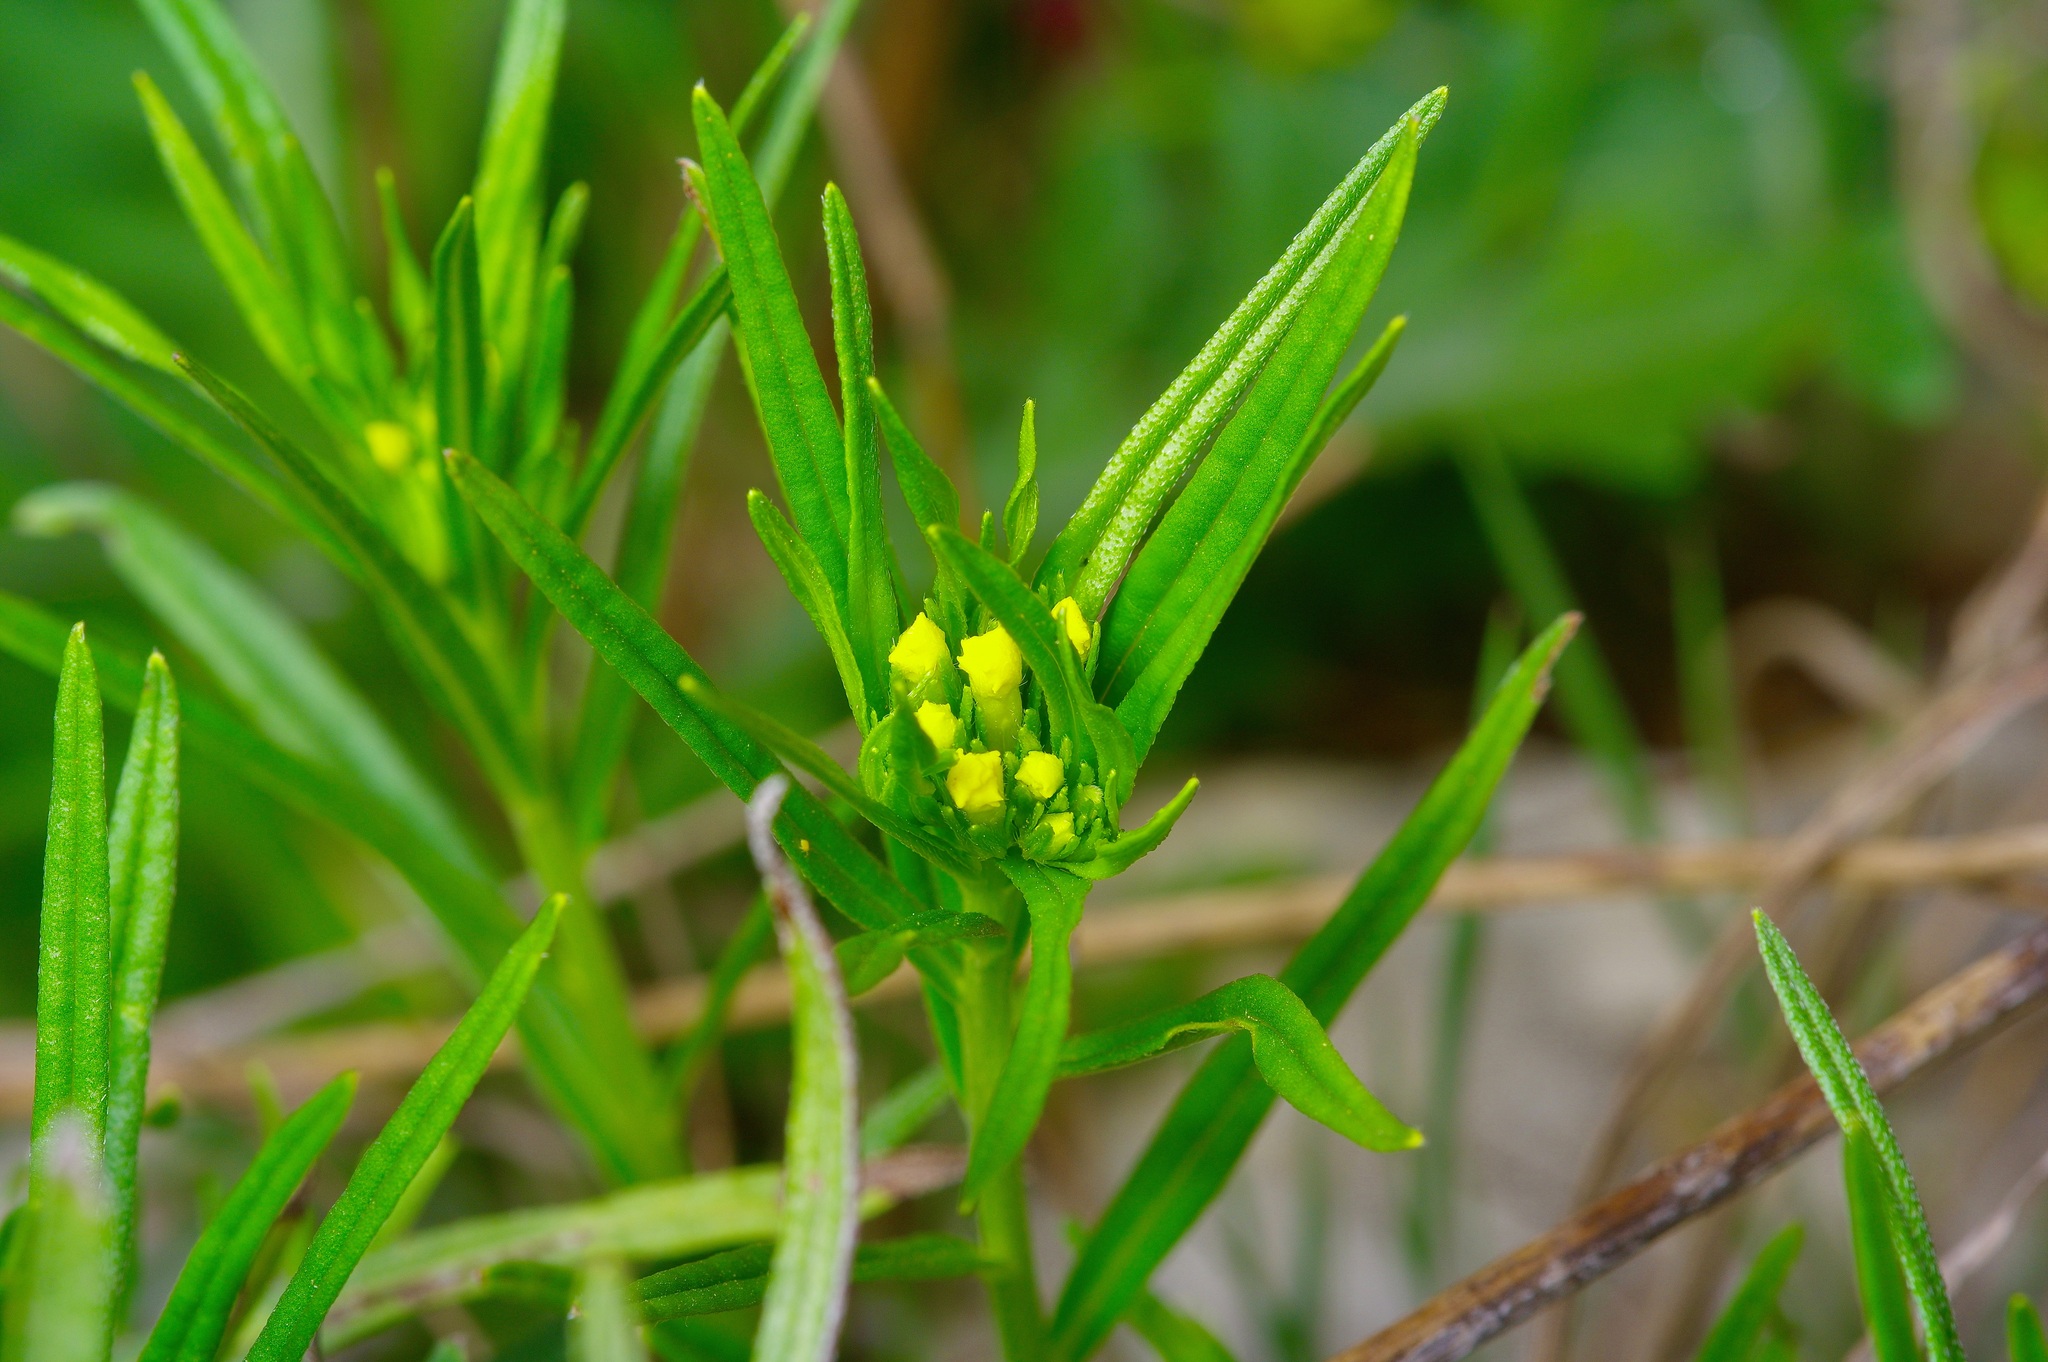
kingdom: Plantae
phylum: Tracheophyta
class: Magnoliopsida
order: Boraginales
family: Boraginaceae
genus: Lithospermum
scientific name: Lithospermum incisum
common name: Fringed gromwell
